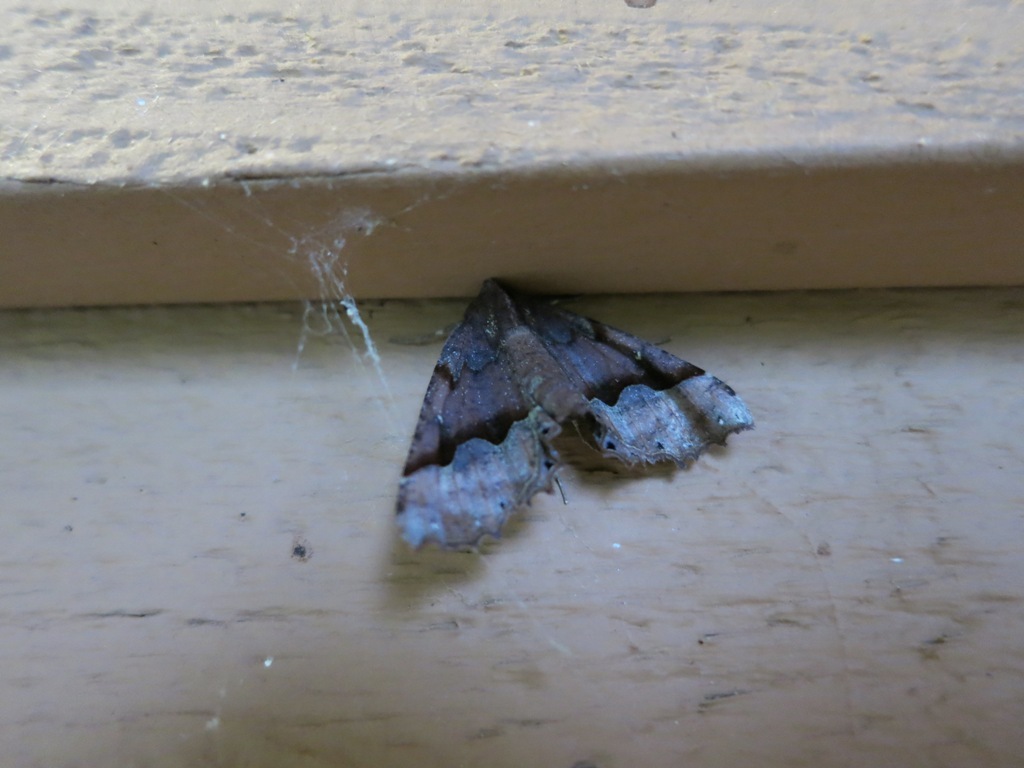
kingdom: Animalia
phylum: Arthropoda
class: Insecta
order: Lepidoptera
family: Geometridae
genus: Pero
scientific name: Pero morrisonaria
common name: Morrison's pero
